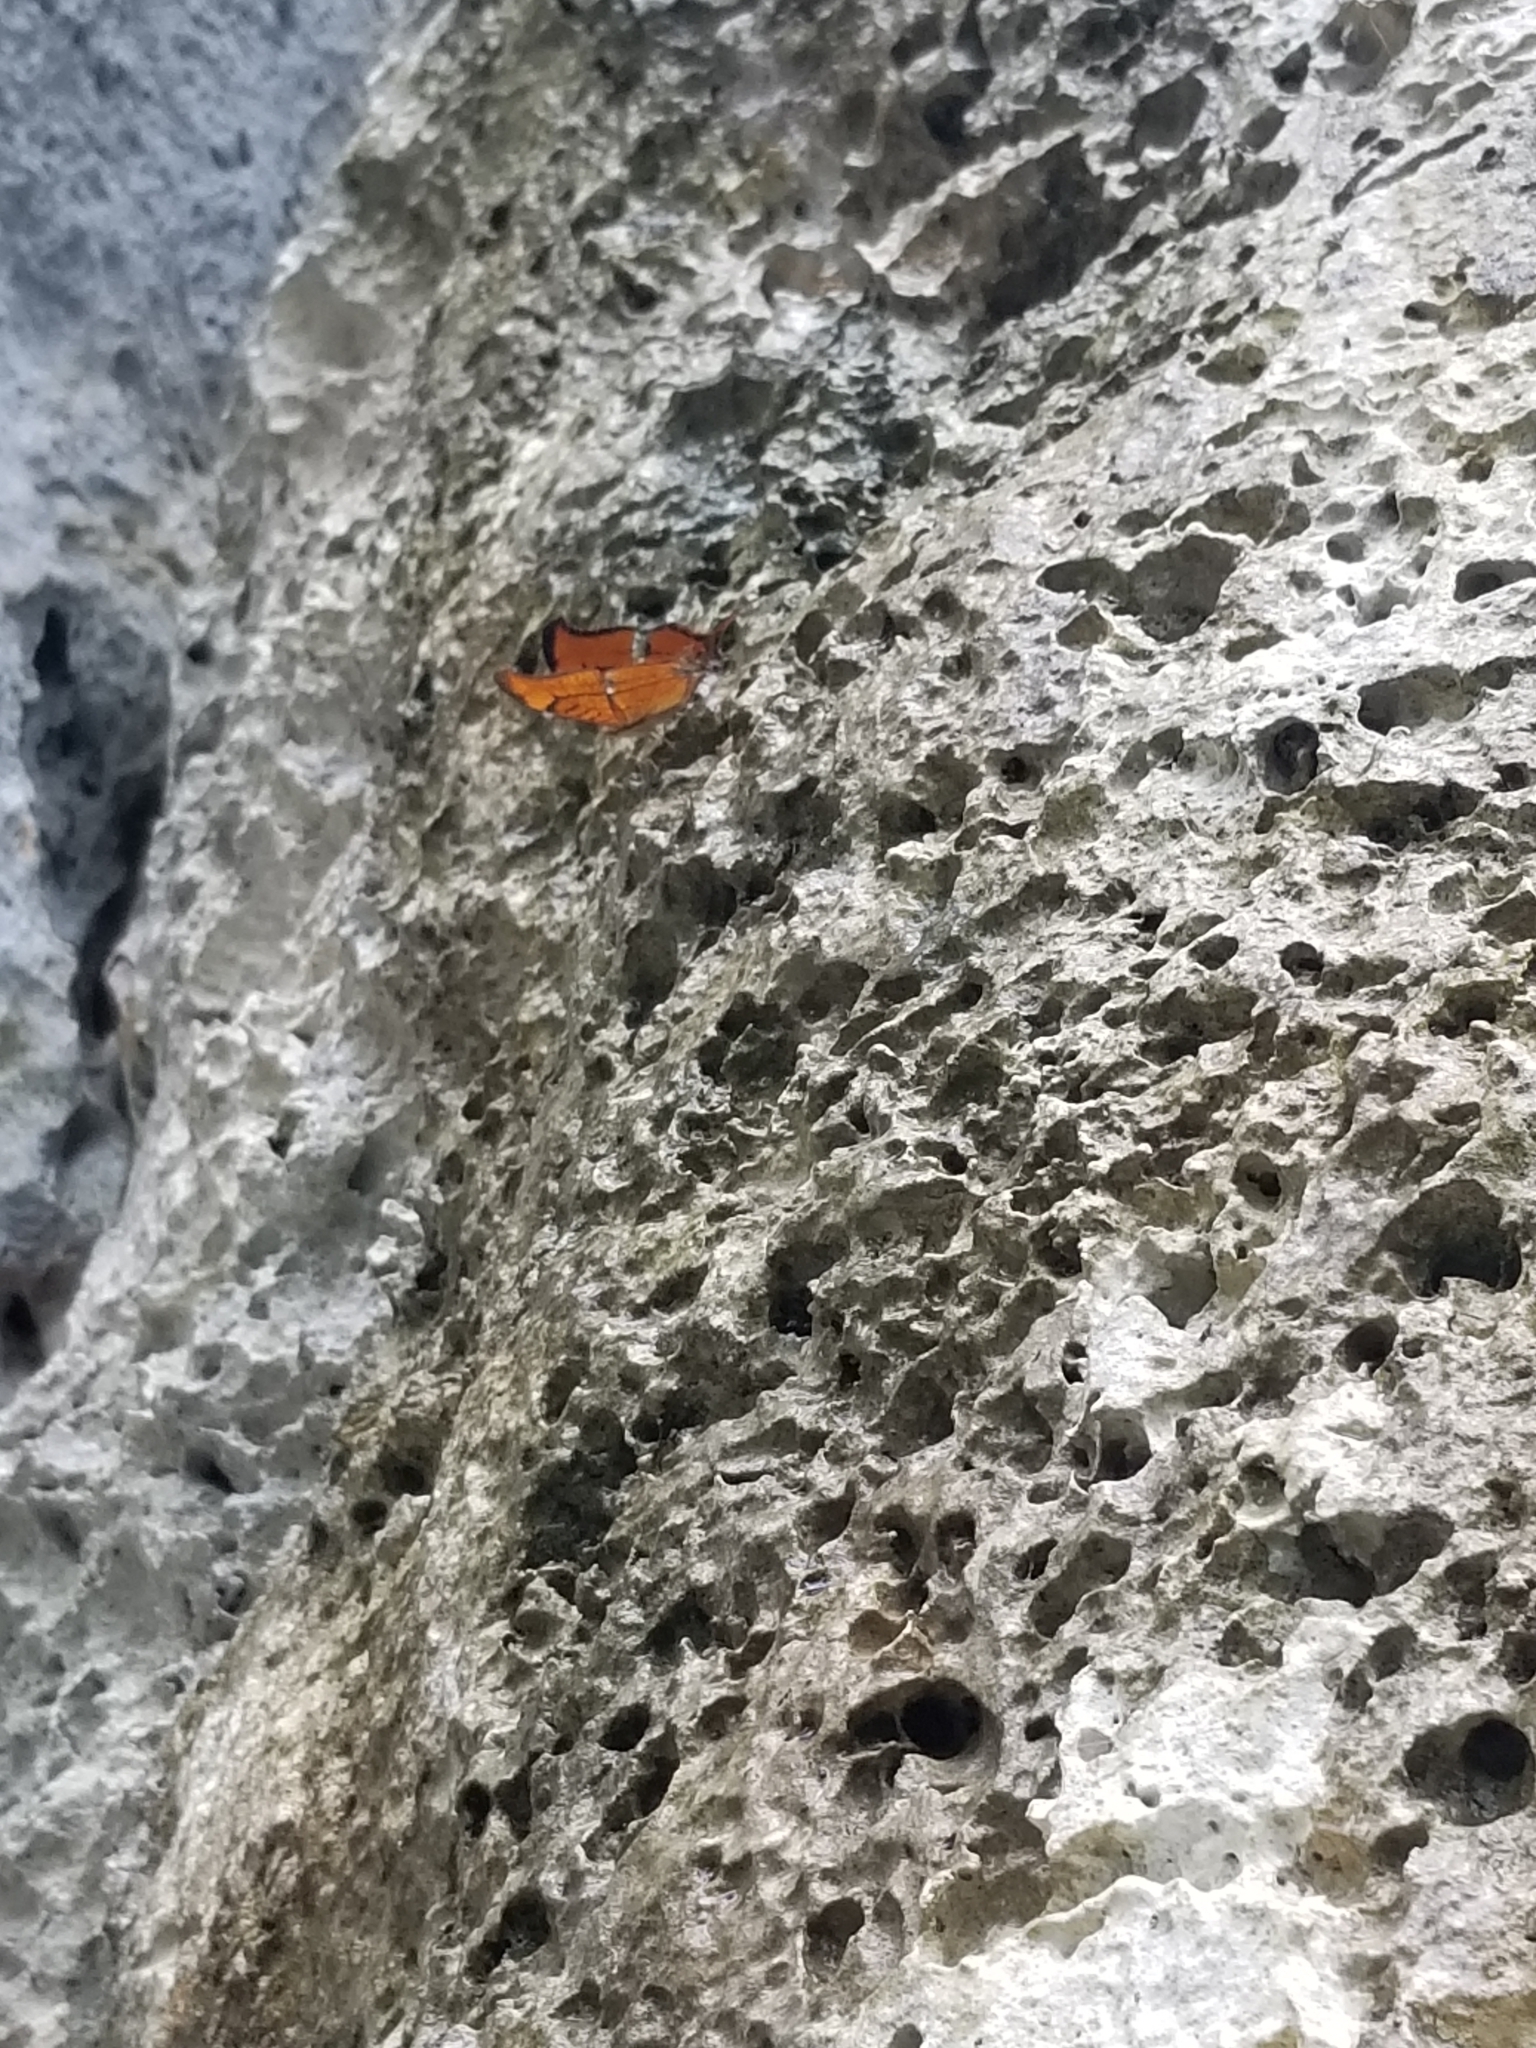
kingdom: Animalia
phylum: Arthropoda
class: Insecta
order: Lepidoptera
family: Nymphalidae
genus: Marpesia
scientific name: Marpesia eleuchea
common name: Antillean daggerwing
